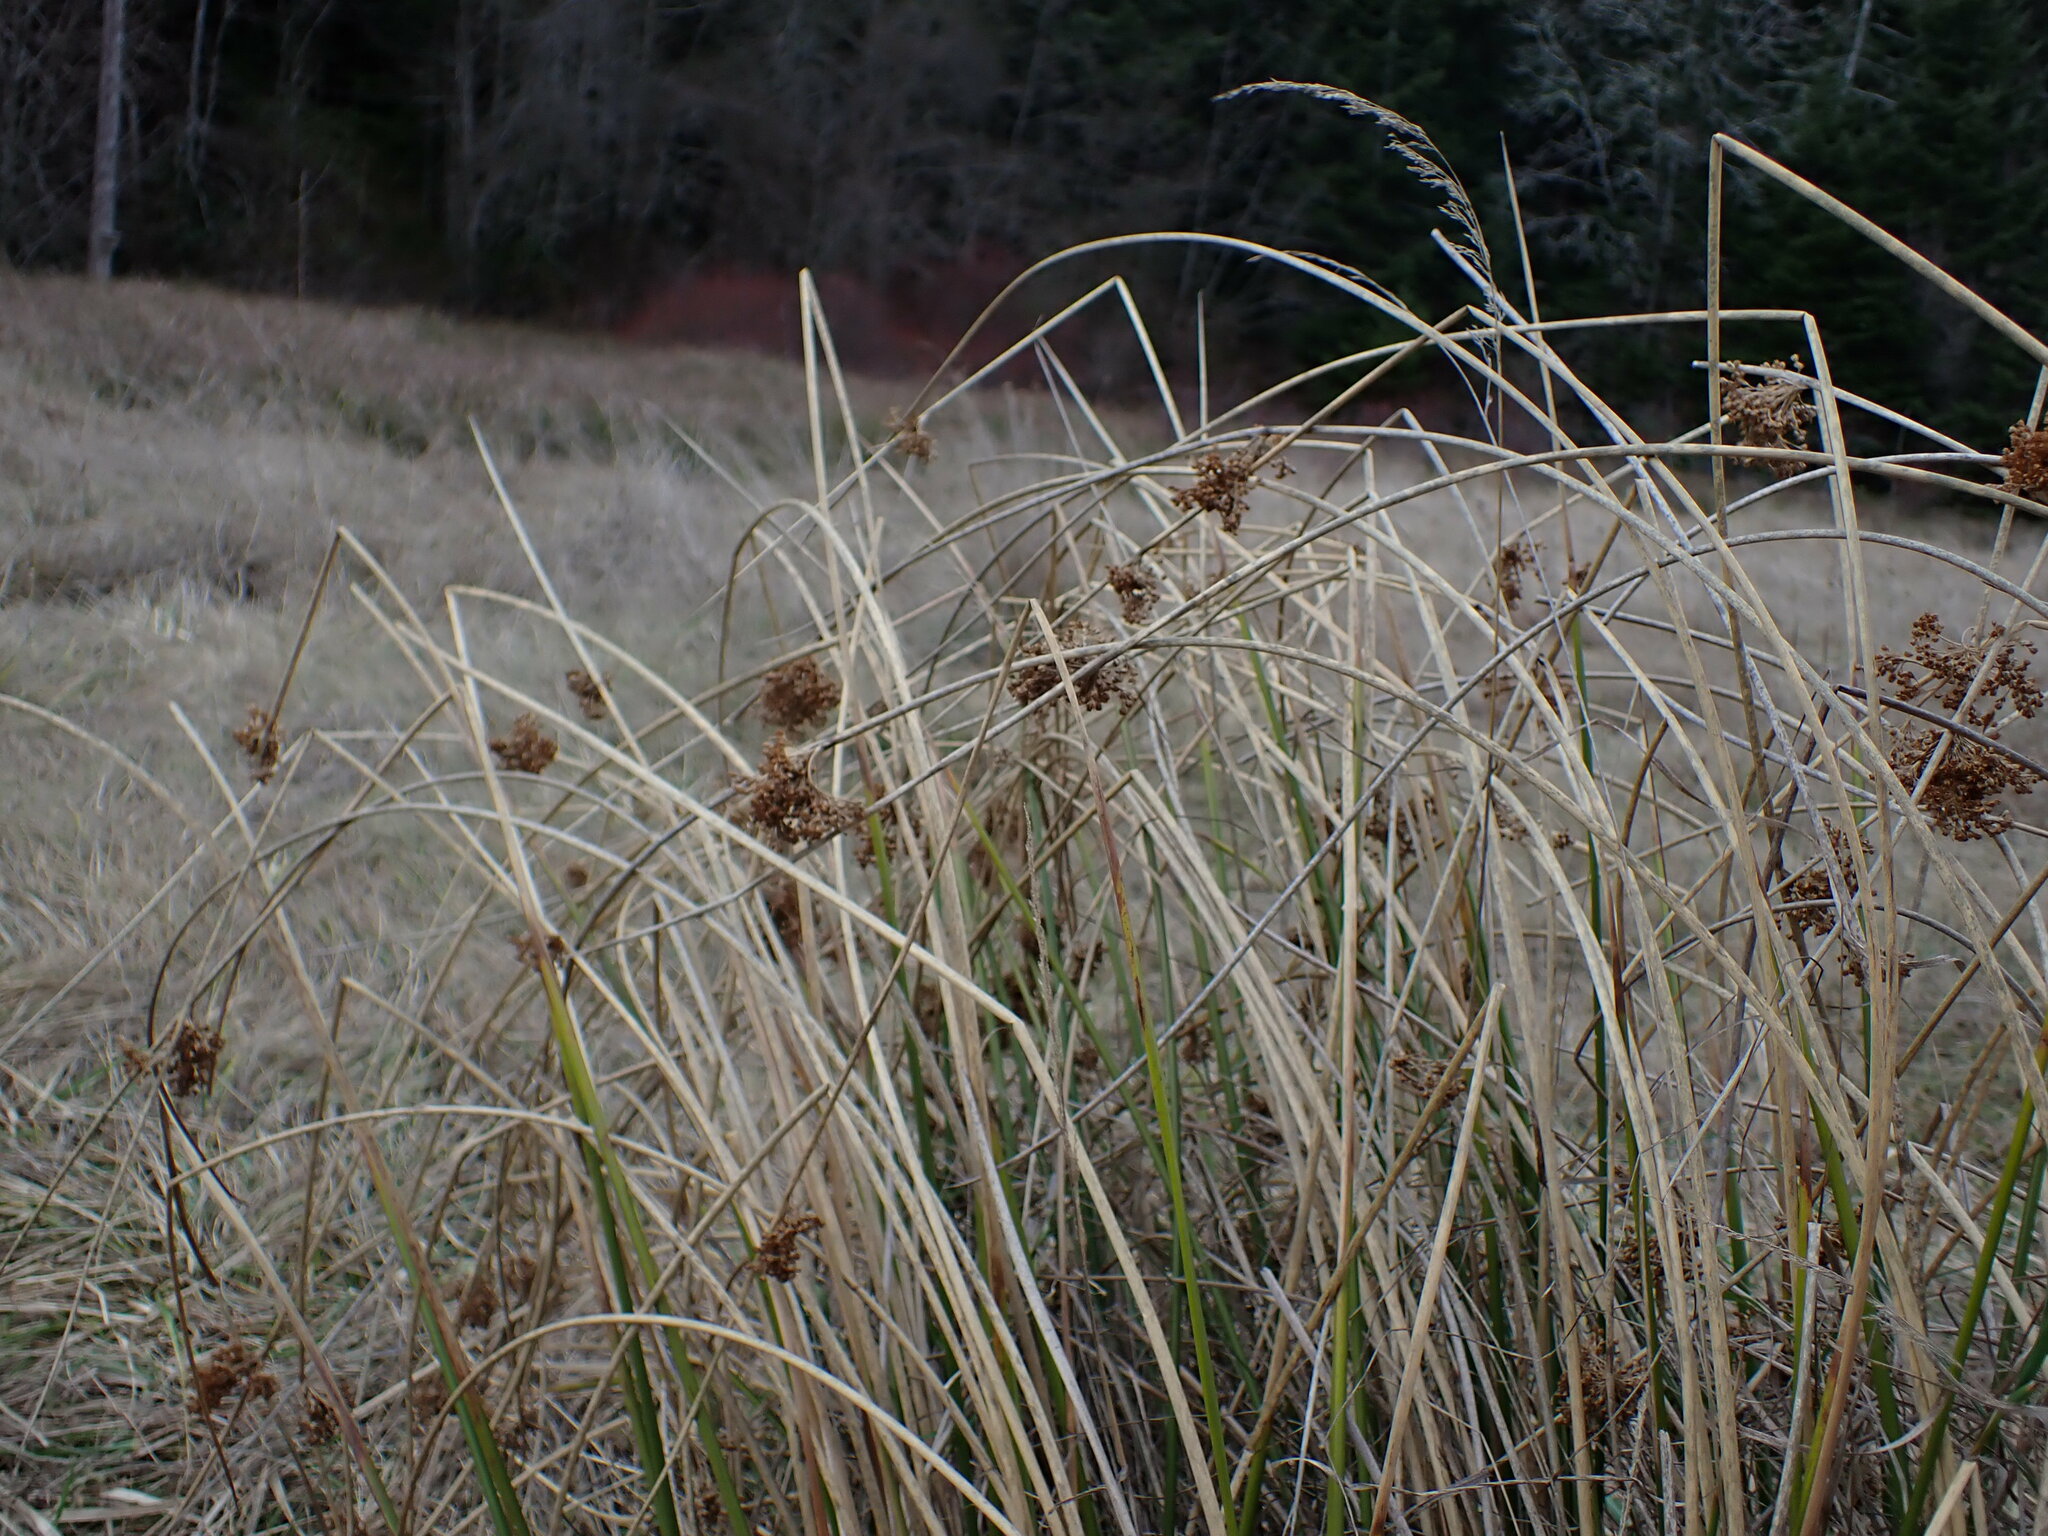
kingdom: Plantae
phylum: Tracheophyta
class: Liliopsida
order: Poales
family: Juncaceae
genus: Juncus
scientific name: Juncus effusus
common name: Soft rush
